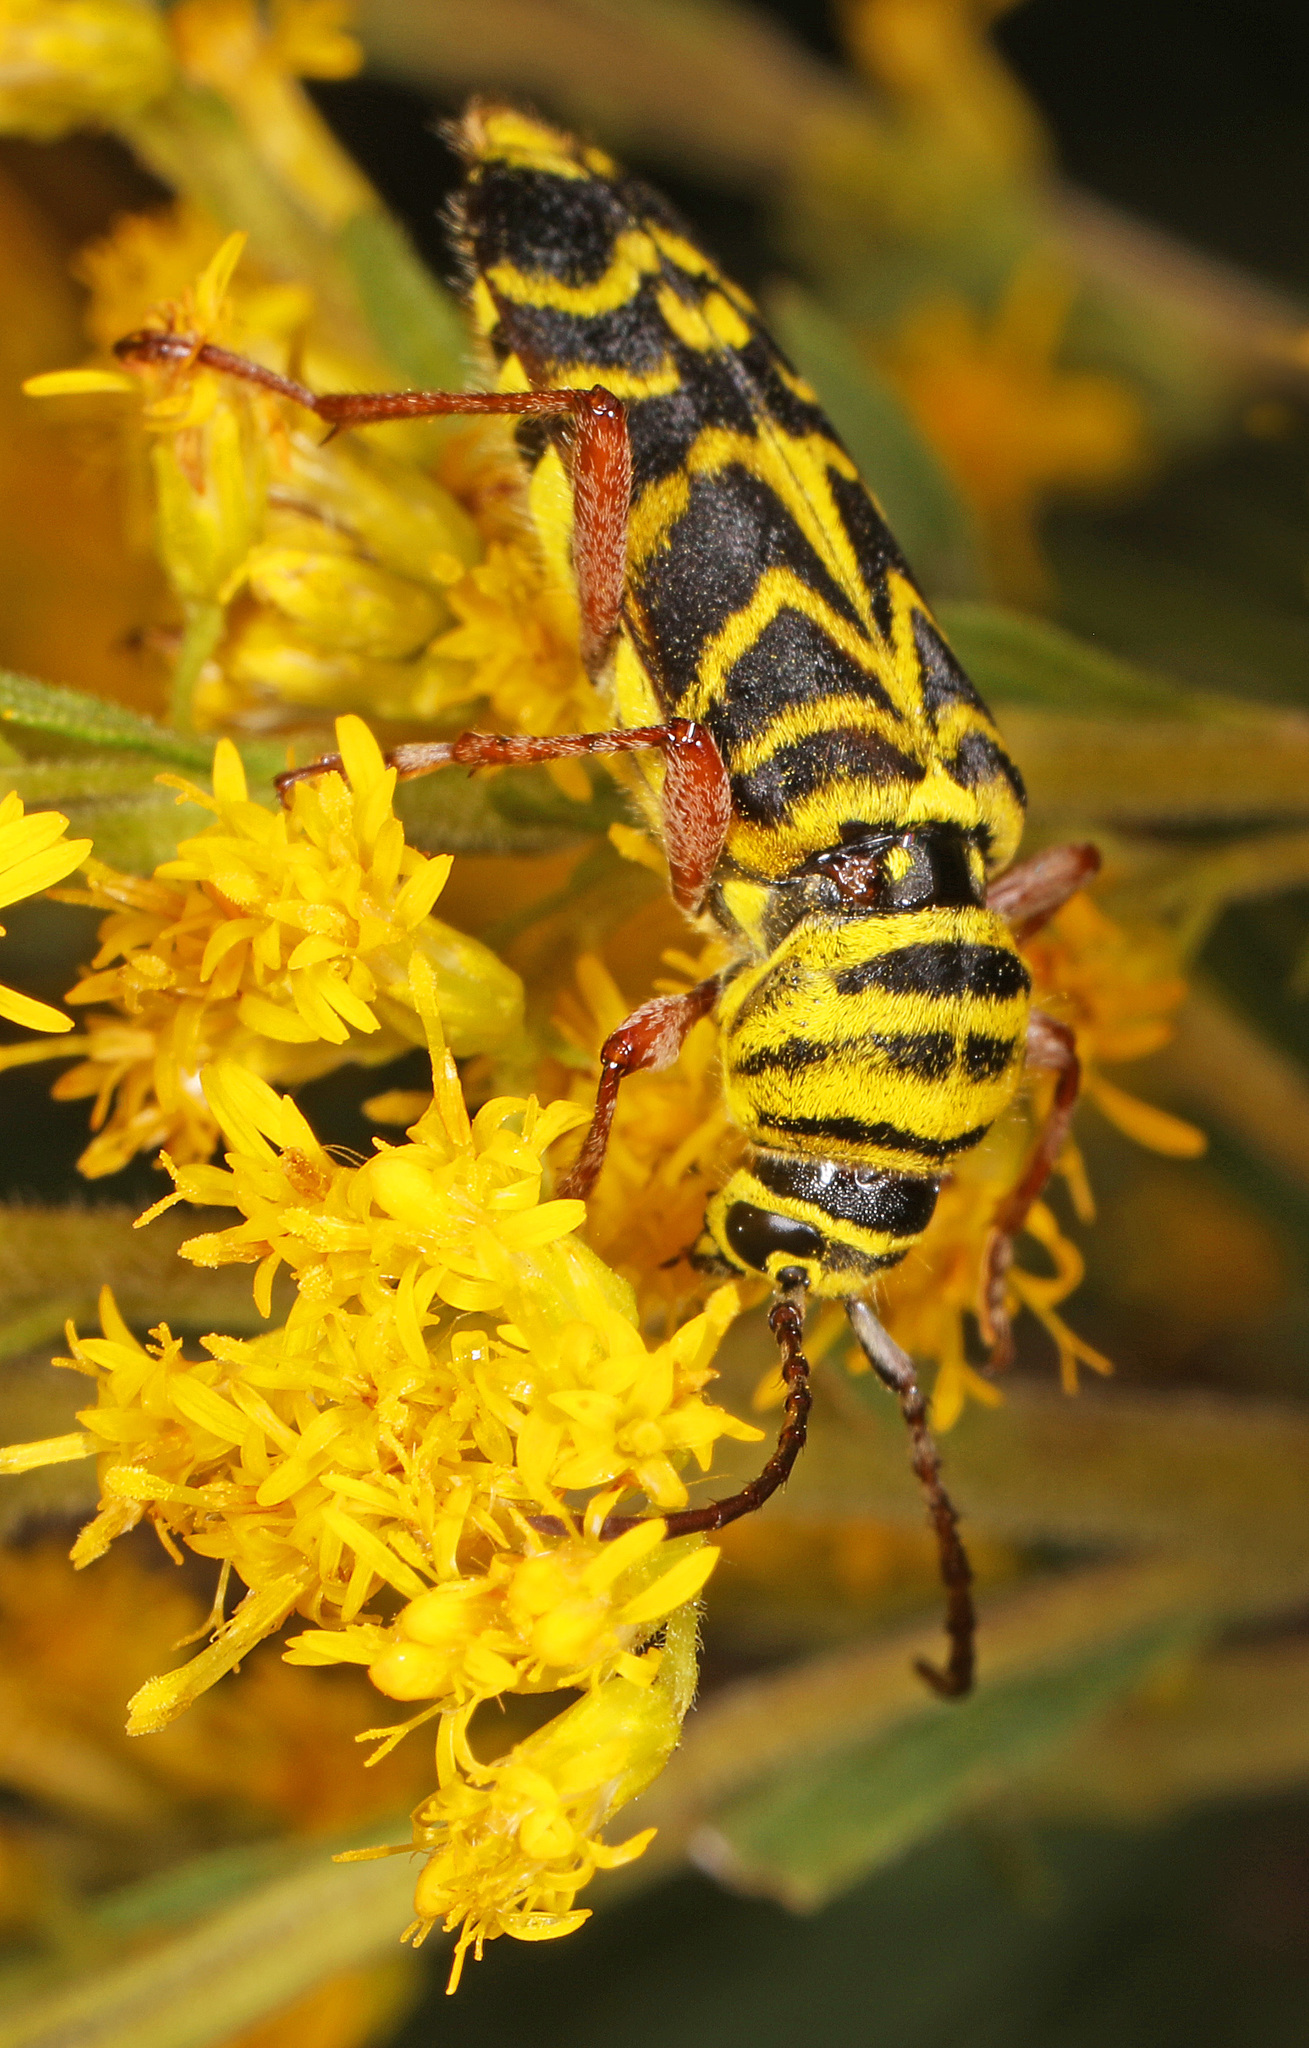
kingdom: Animalia
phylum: Arthropoda
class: Insecta
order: Coleoptera
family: Cerambycidae
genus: Megacyllene
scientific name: Megacyllene robiniae
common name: Locust borer
